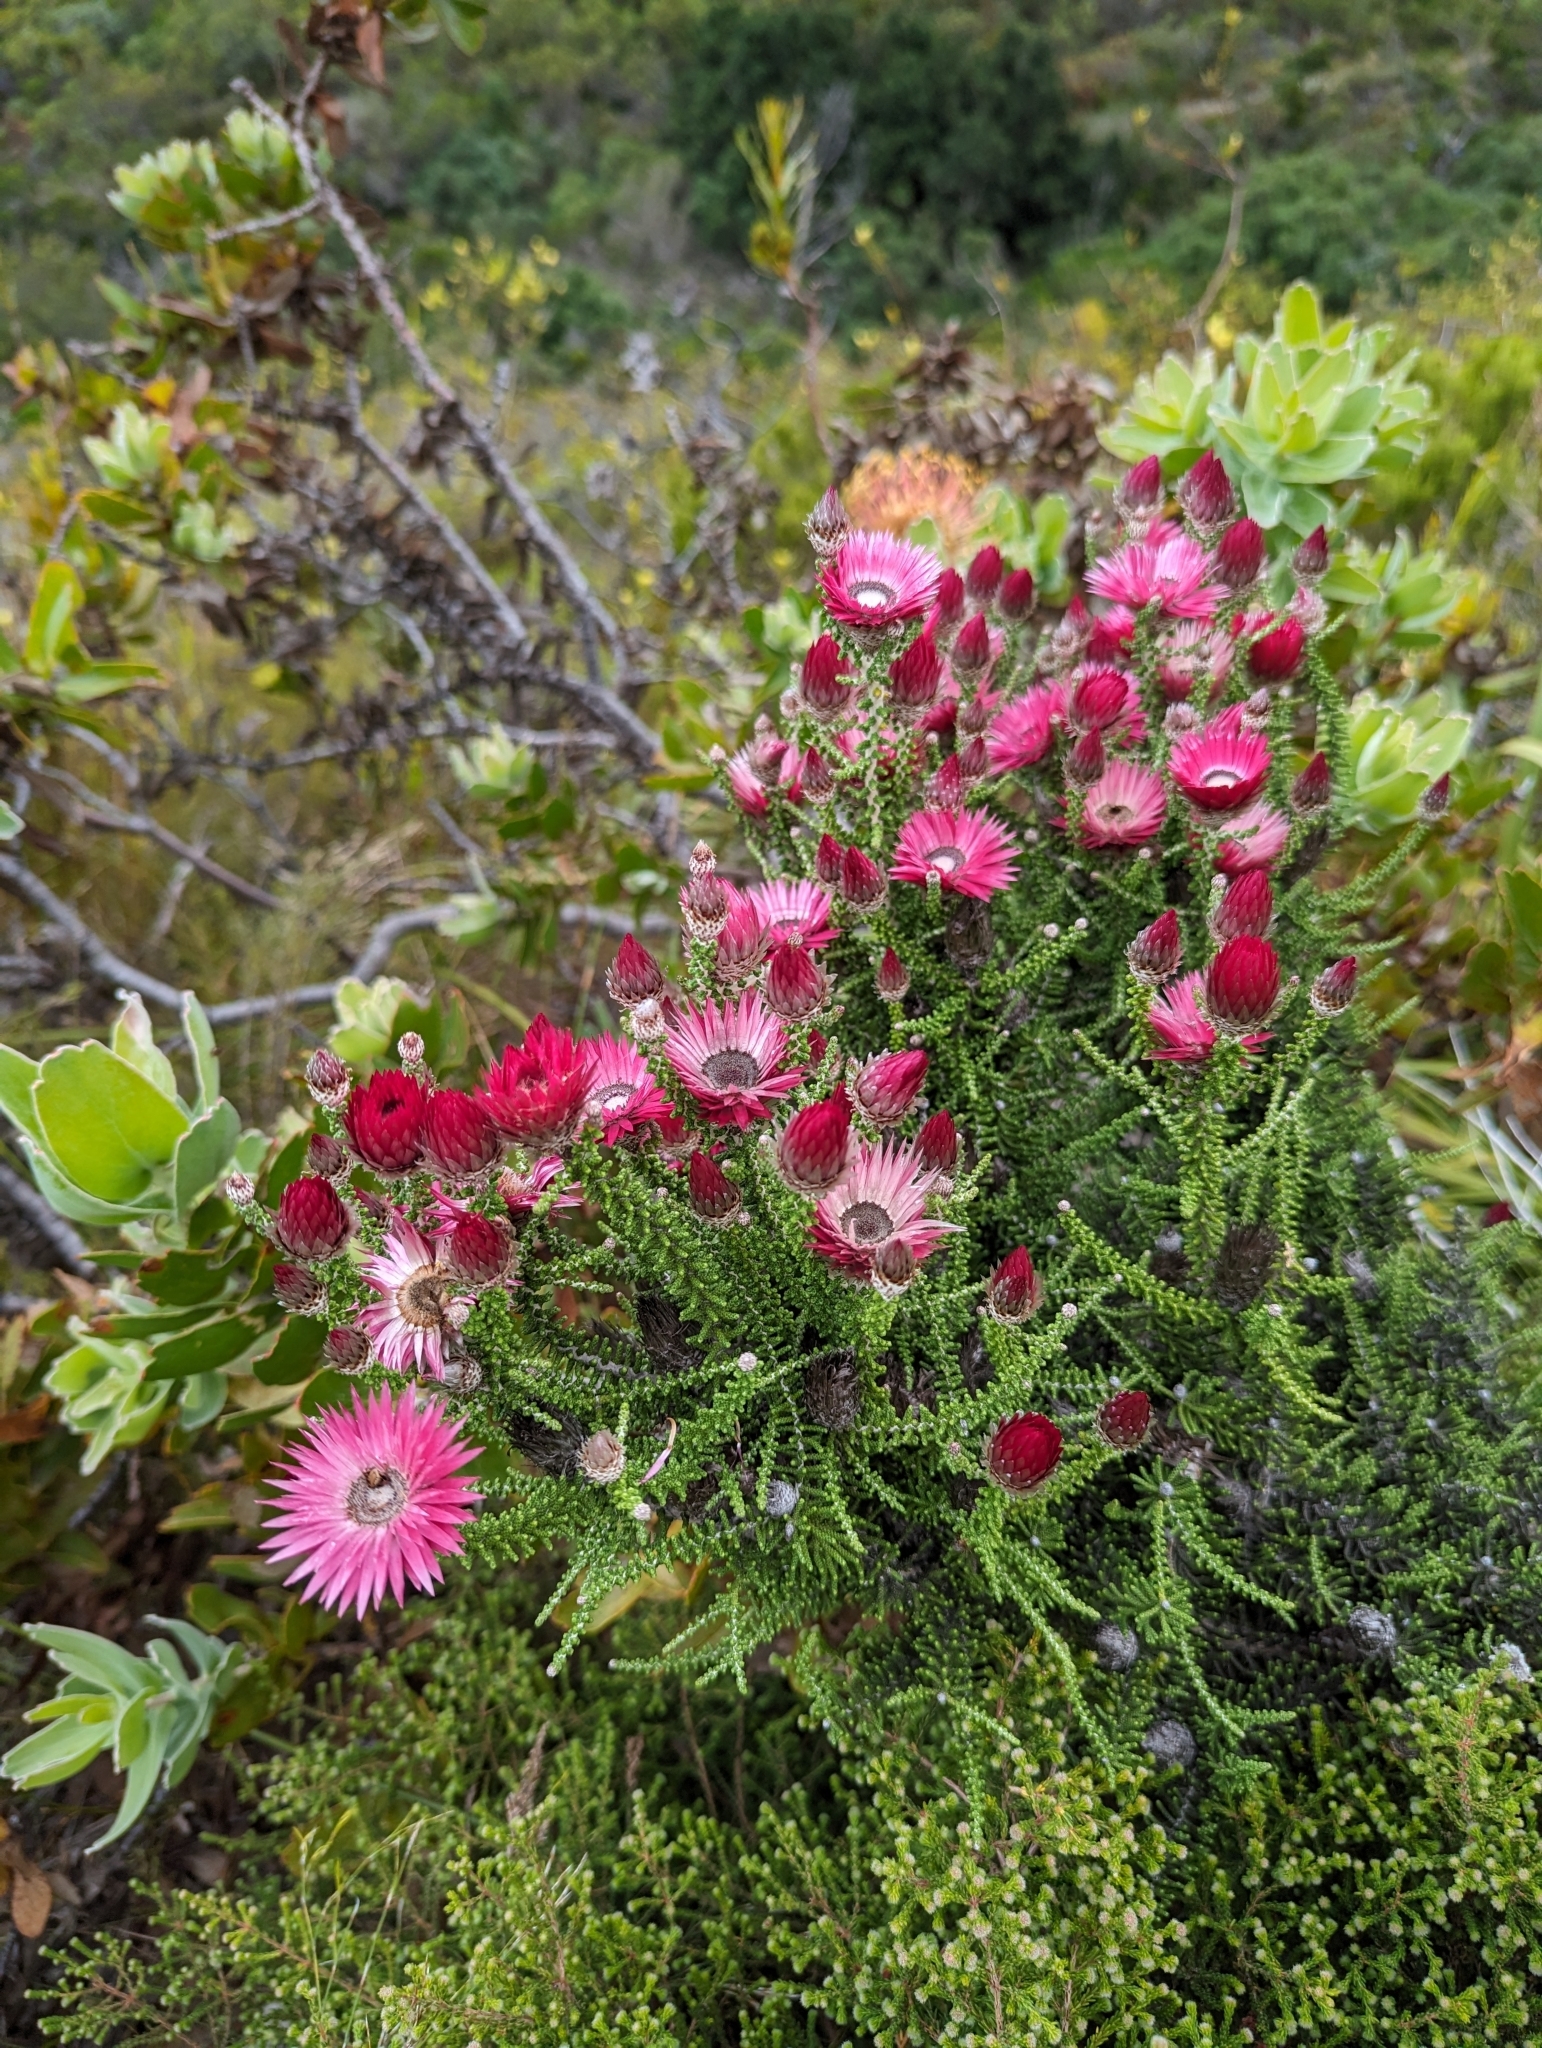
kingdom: Plantae
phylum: Tracheophyta
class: Magnoliopsida
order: Asterales
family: Asteraceae
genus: Phaenocoma
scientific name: Phaenocoma prolifera
